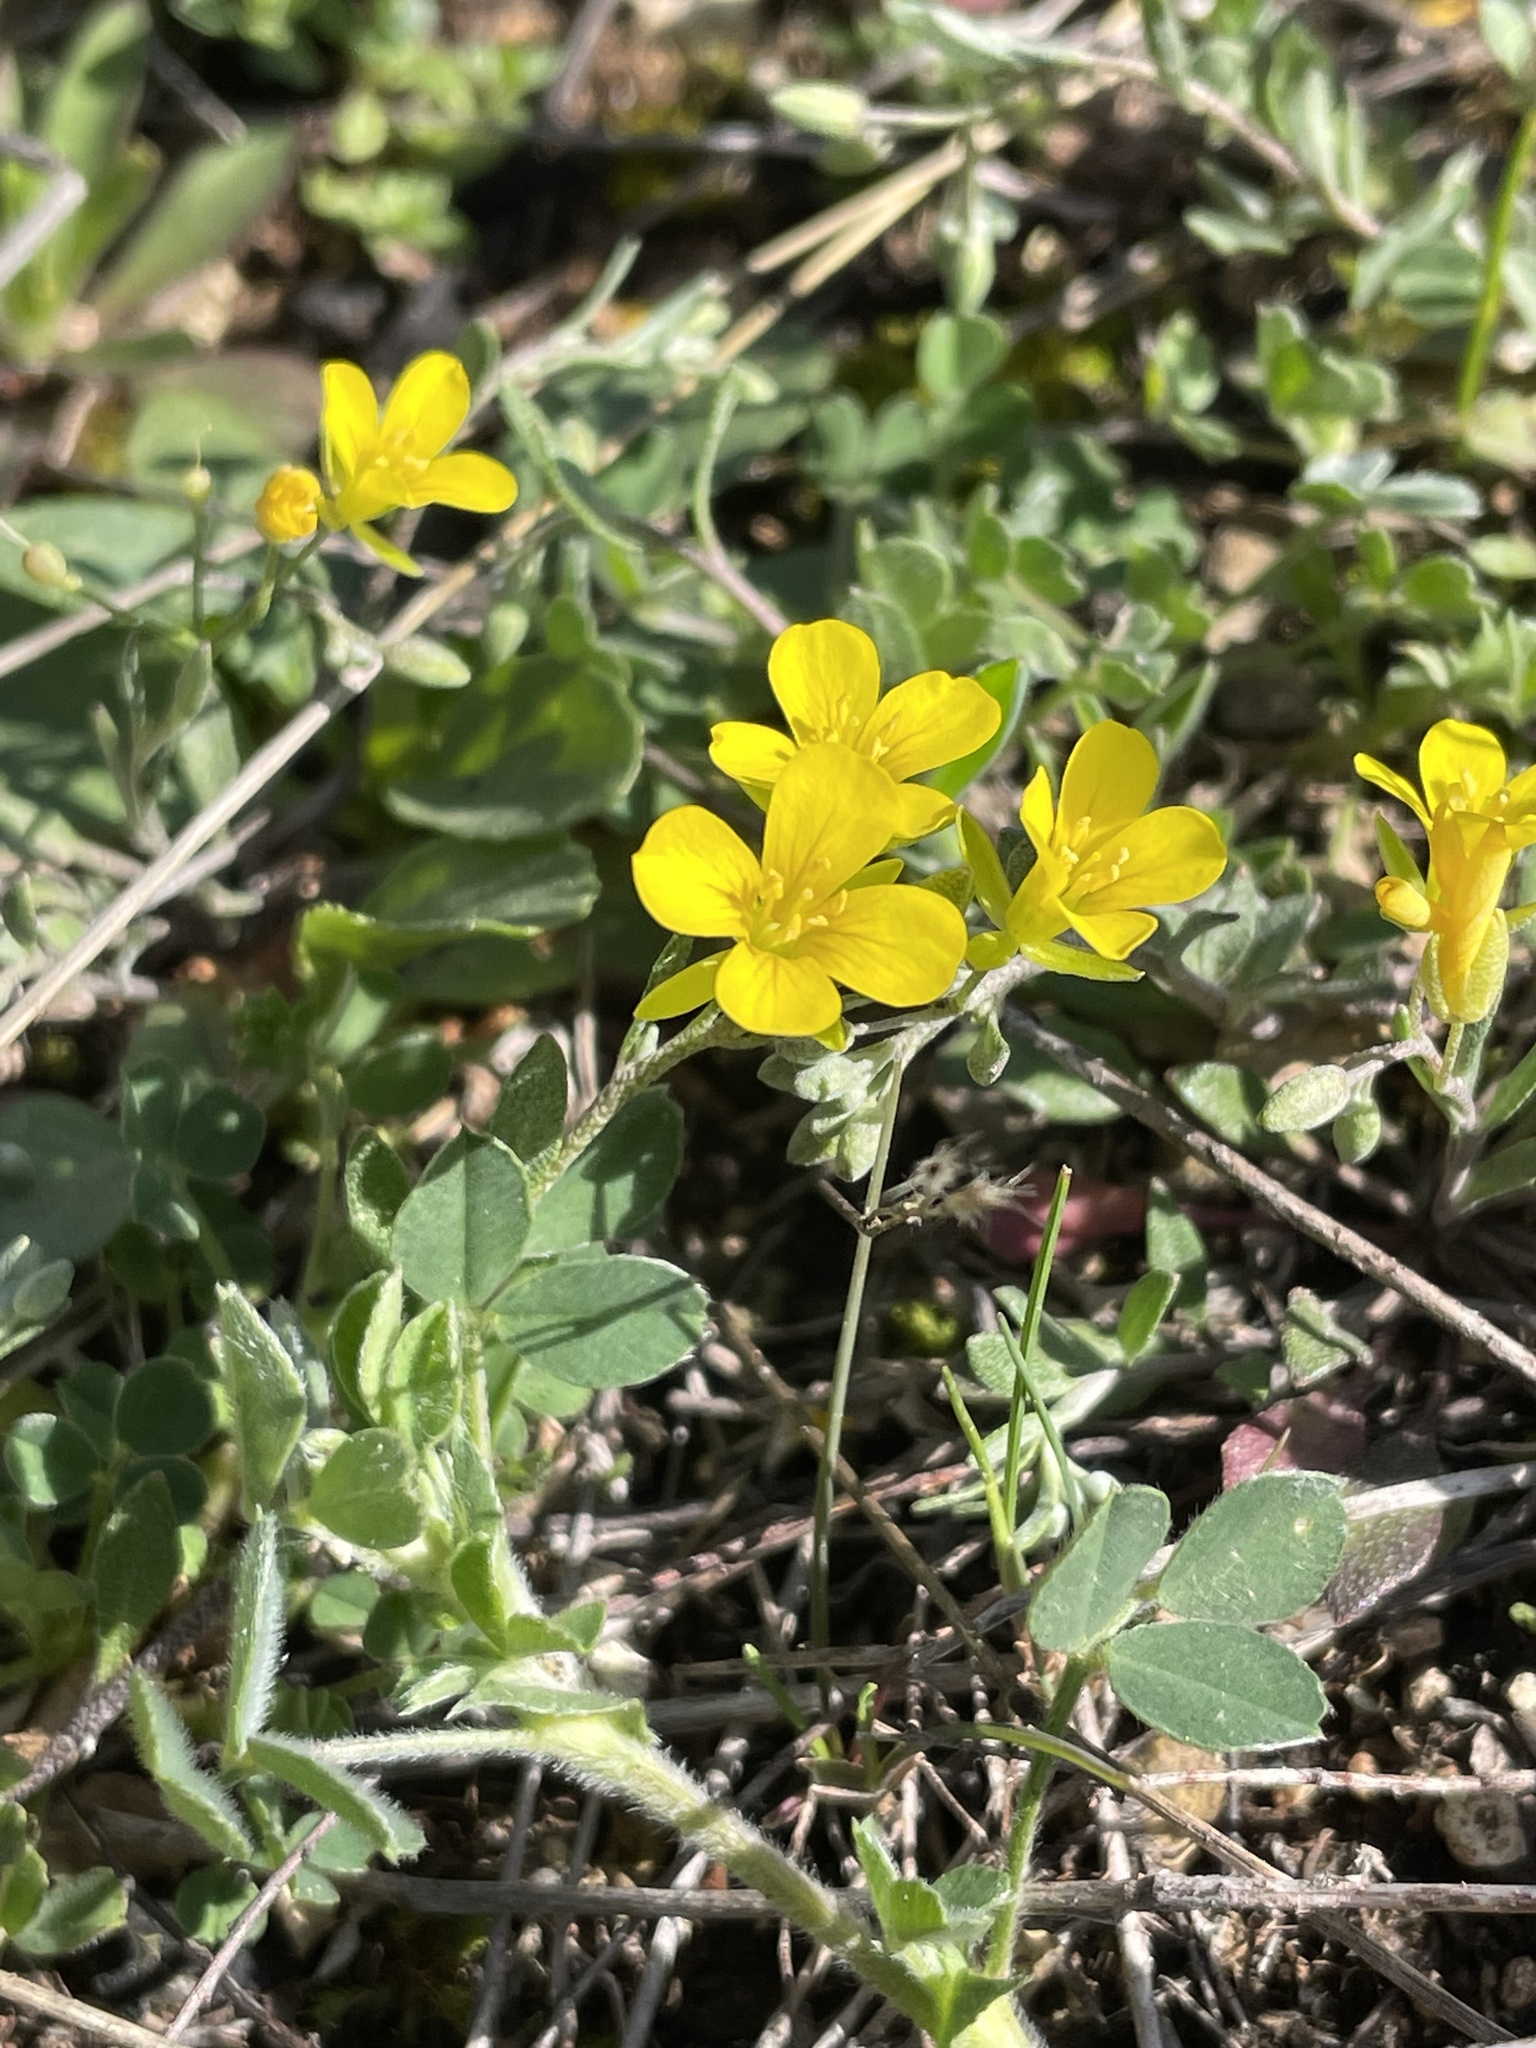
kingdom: Plantae
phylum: Tracheophyta
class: Magnoliopsida
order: Brassicales
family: Brassicaceae
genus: Physaria
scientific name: Physaria recurvata
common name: Gaslight bladderpod
